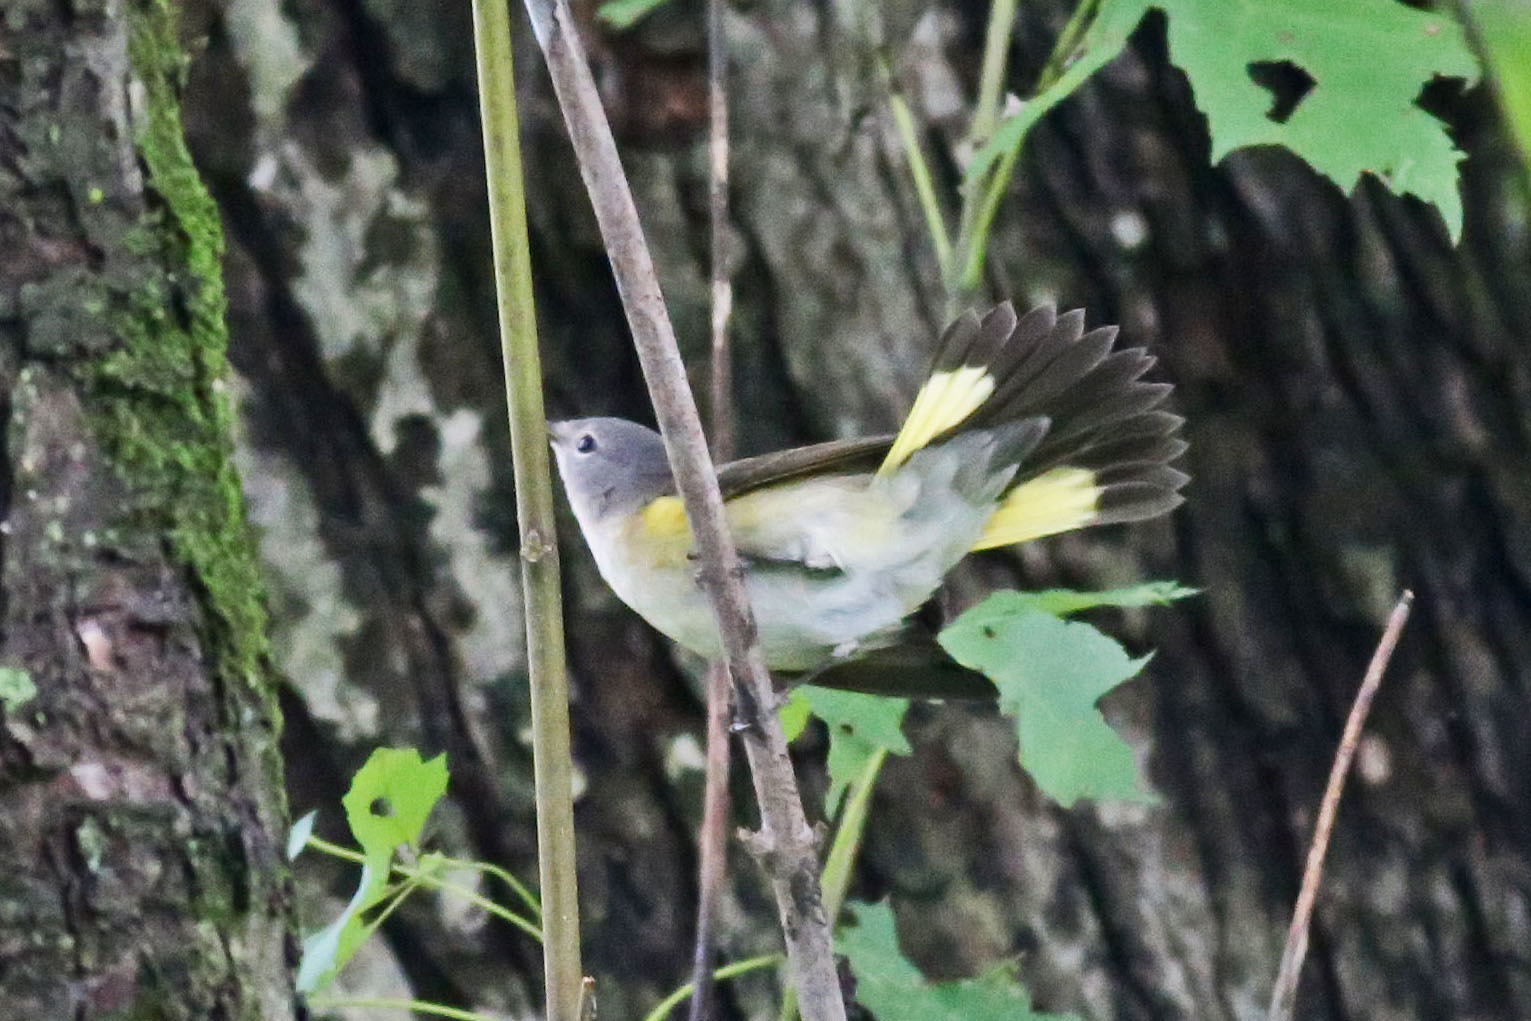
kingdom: Animalia
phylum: Chordata
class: Aves
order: Passeriformes
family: Parulidae
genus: Setophaga
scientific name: Setophaga ruticilla
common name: American redstart
